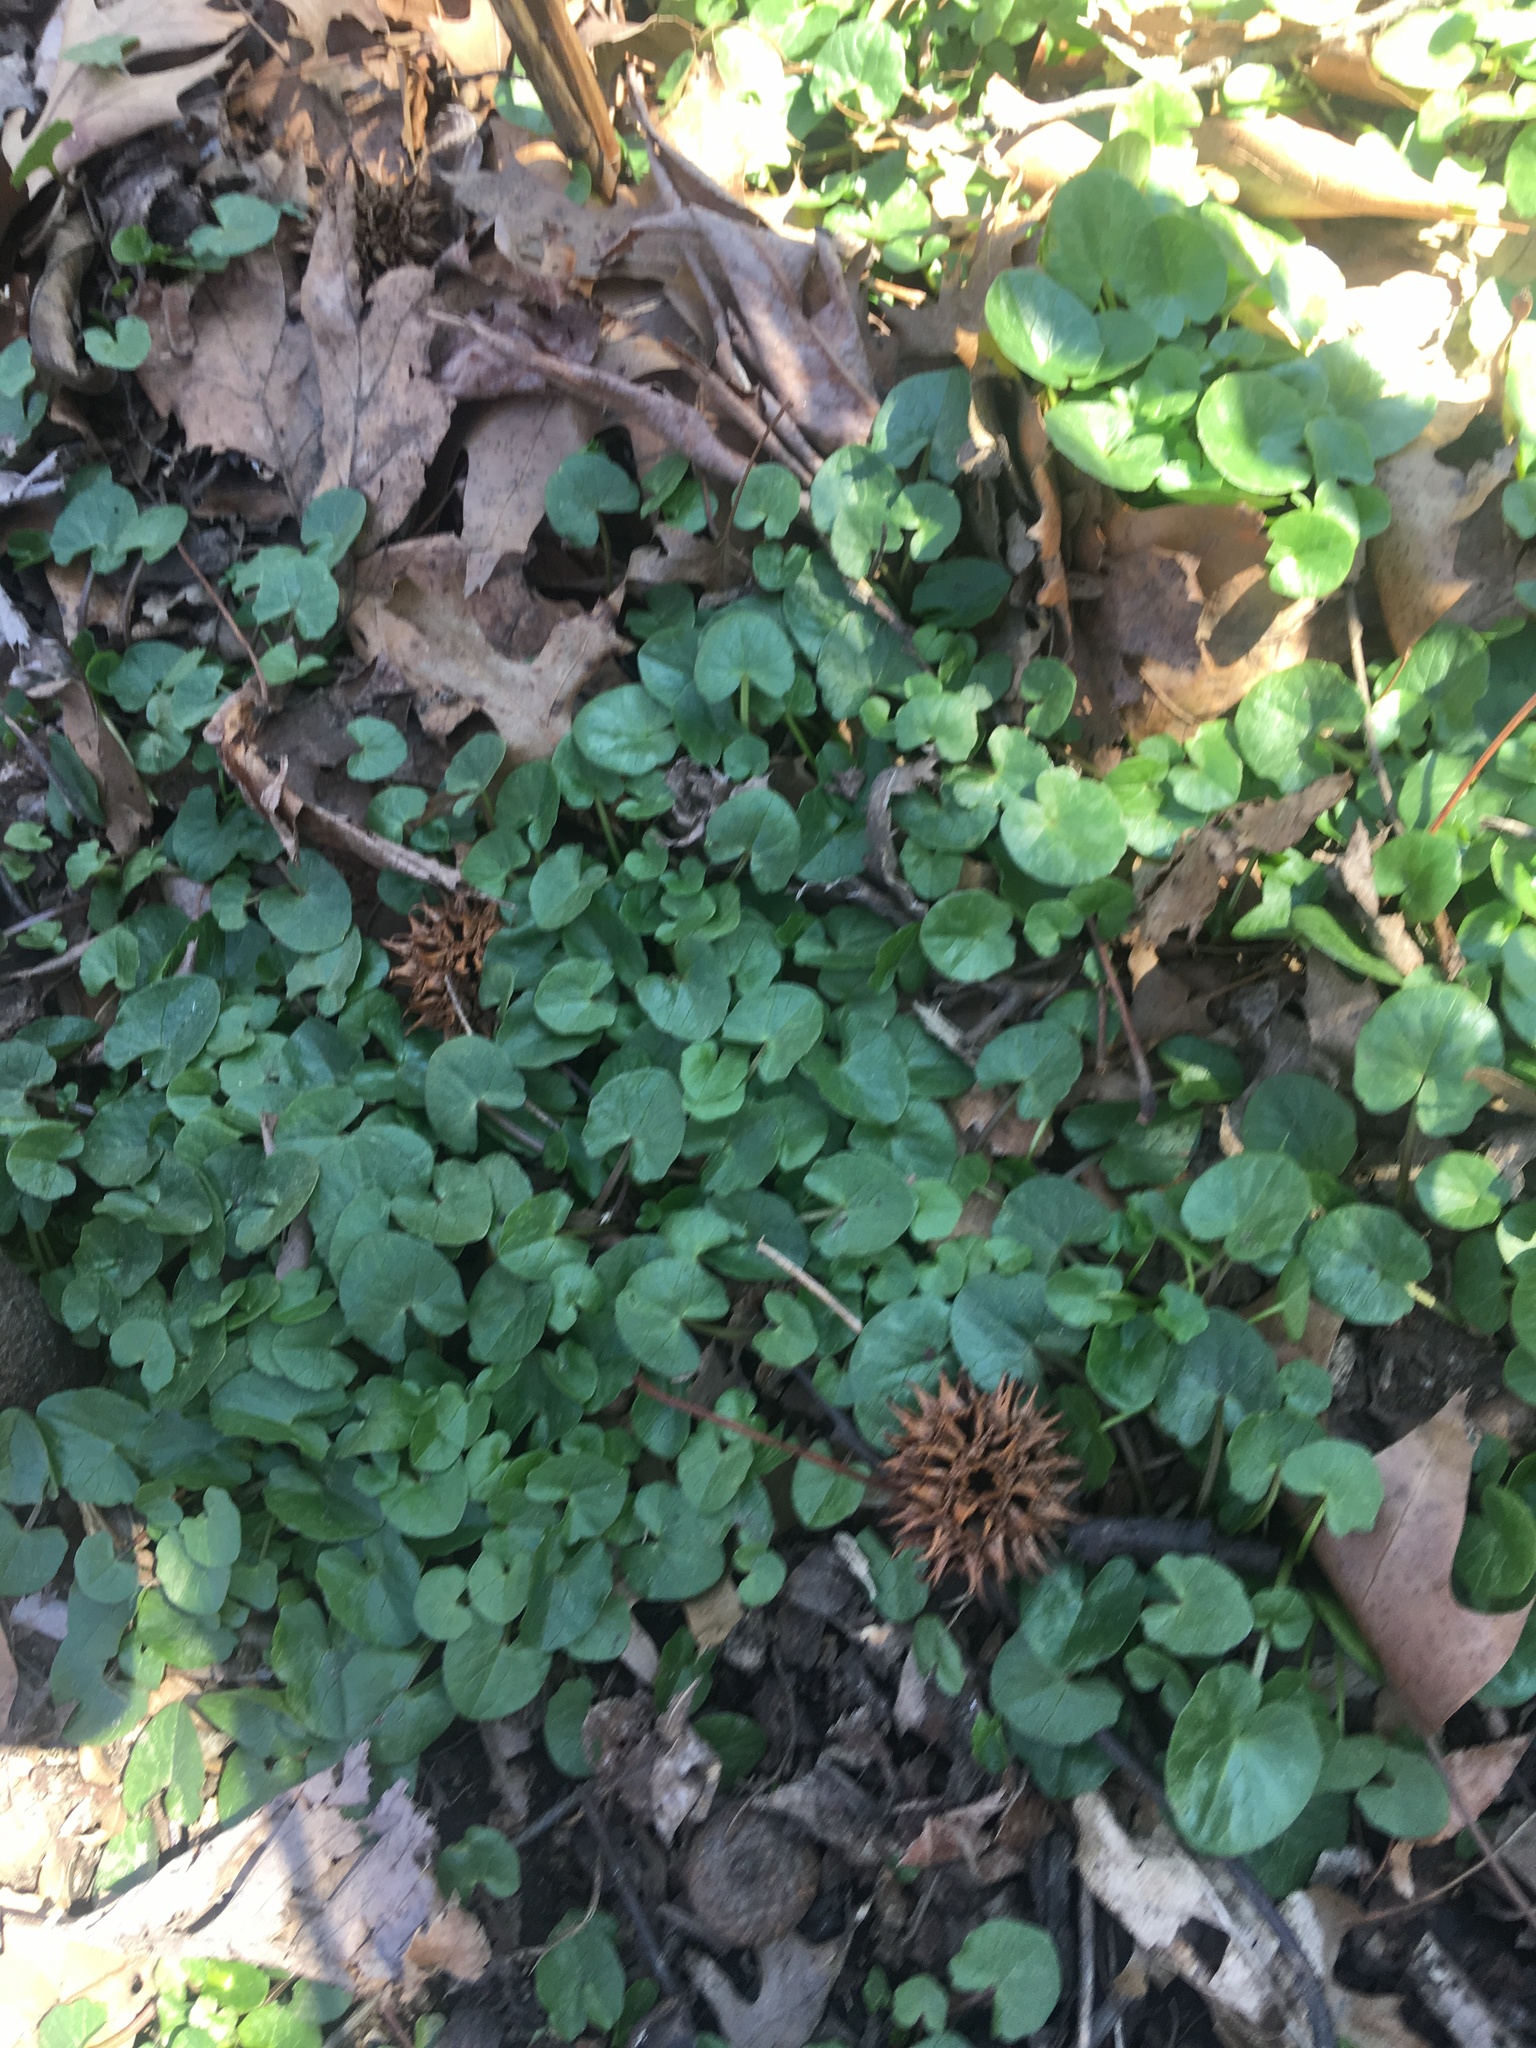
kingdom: Plantae
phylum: Tracheophyta
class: Magnoliopsida
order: Ranunculales
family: Ranunculaceae
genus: Ficaria
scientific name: Ficaria verna
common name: Lesser celandine
